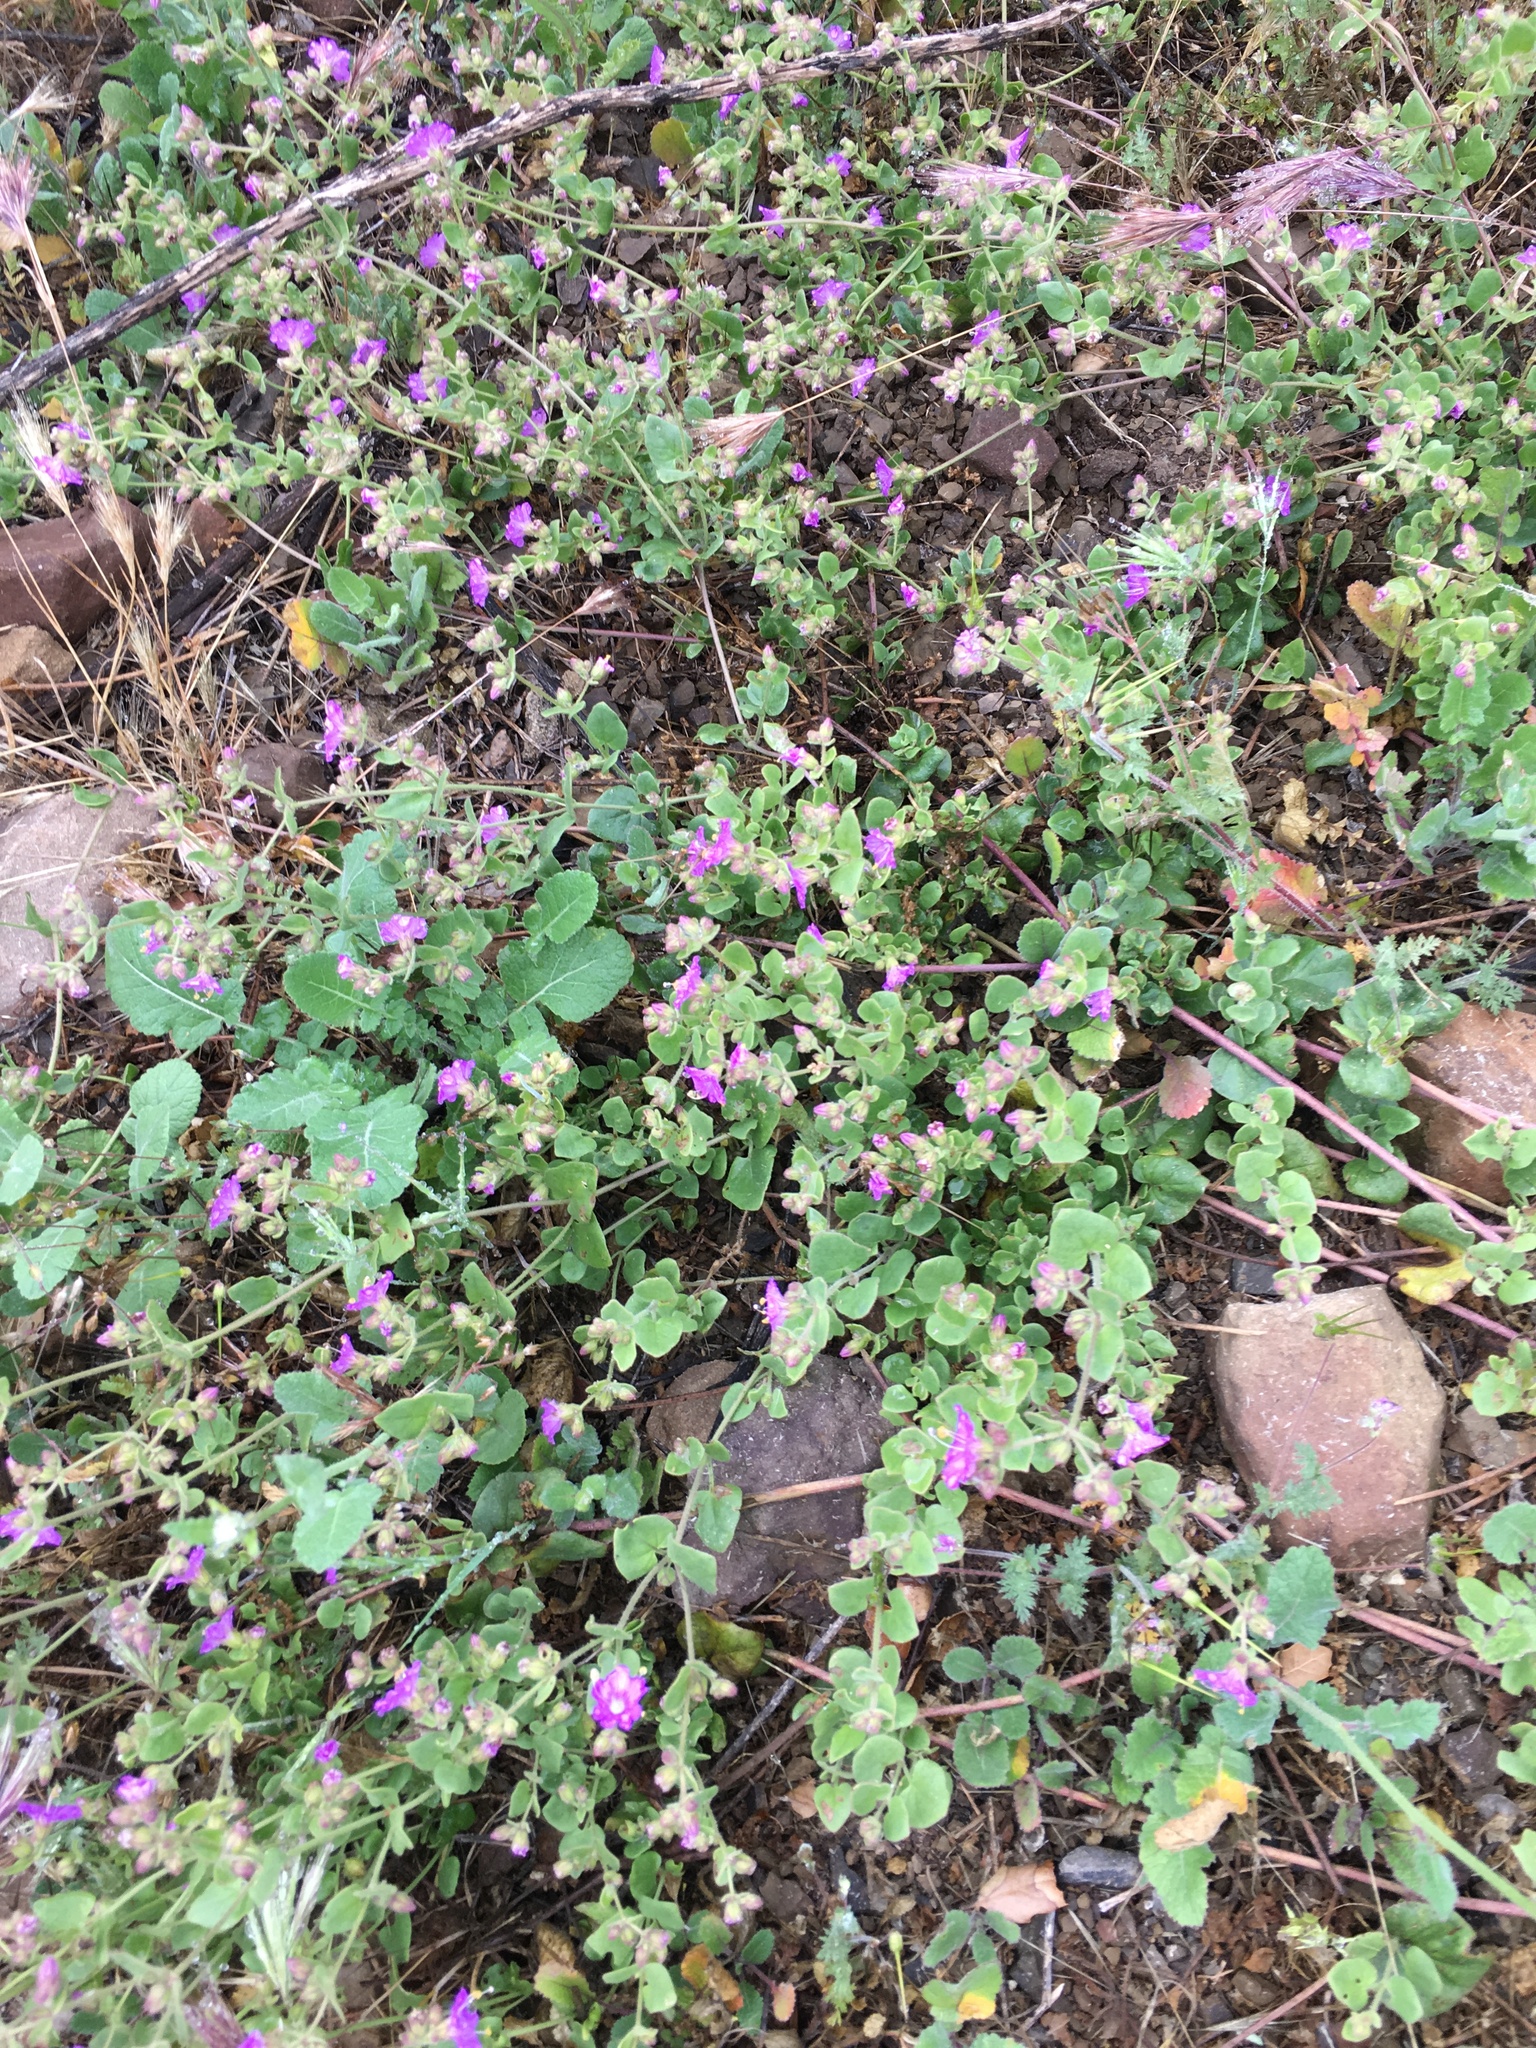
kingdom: Plantae
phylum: Tracheophyta
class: Magnoliopsida
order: Caryophyllales
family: Nyctaginaceae
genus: Mirabilis
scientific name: Mirabilis laevis
